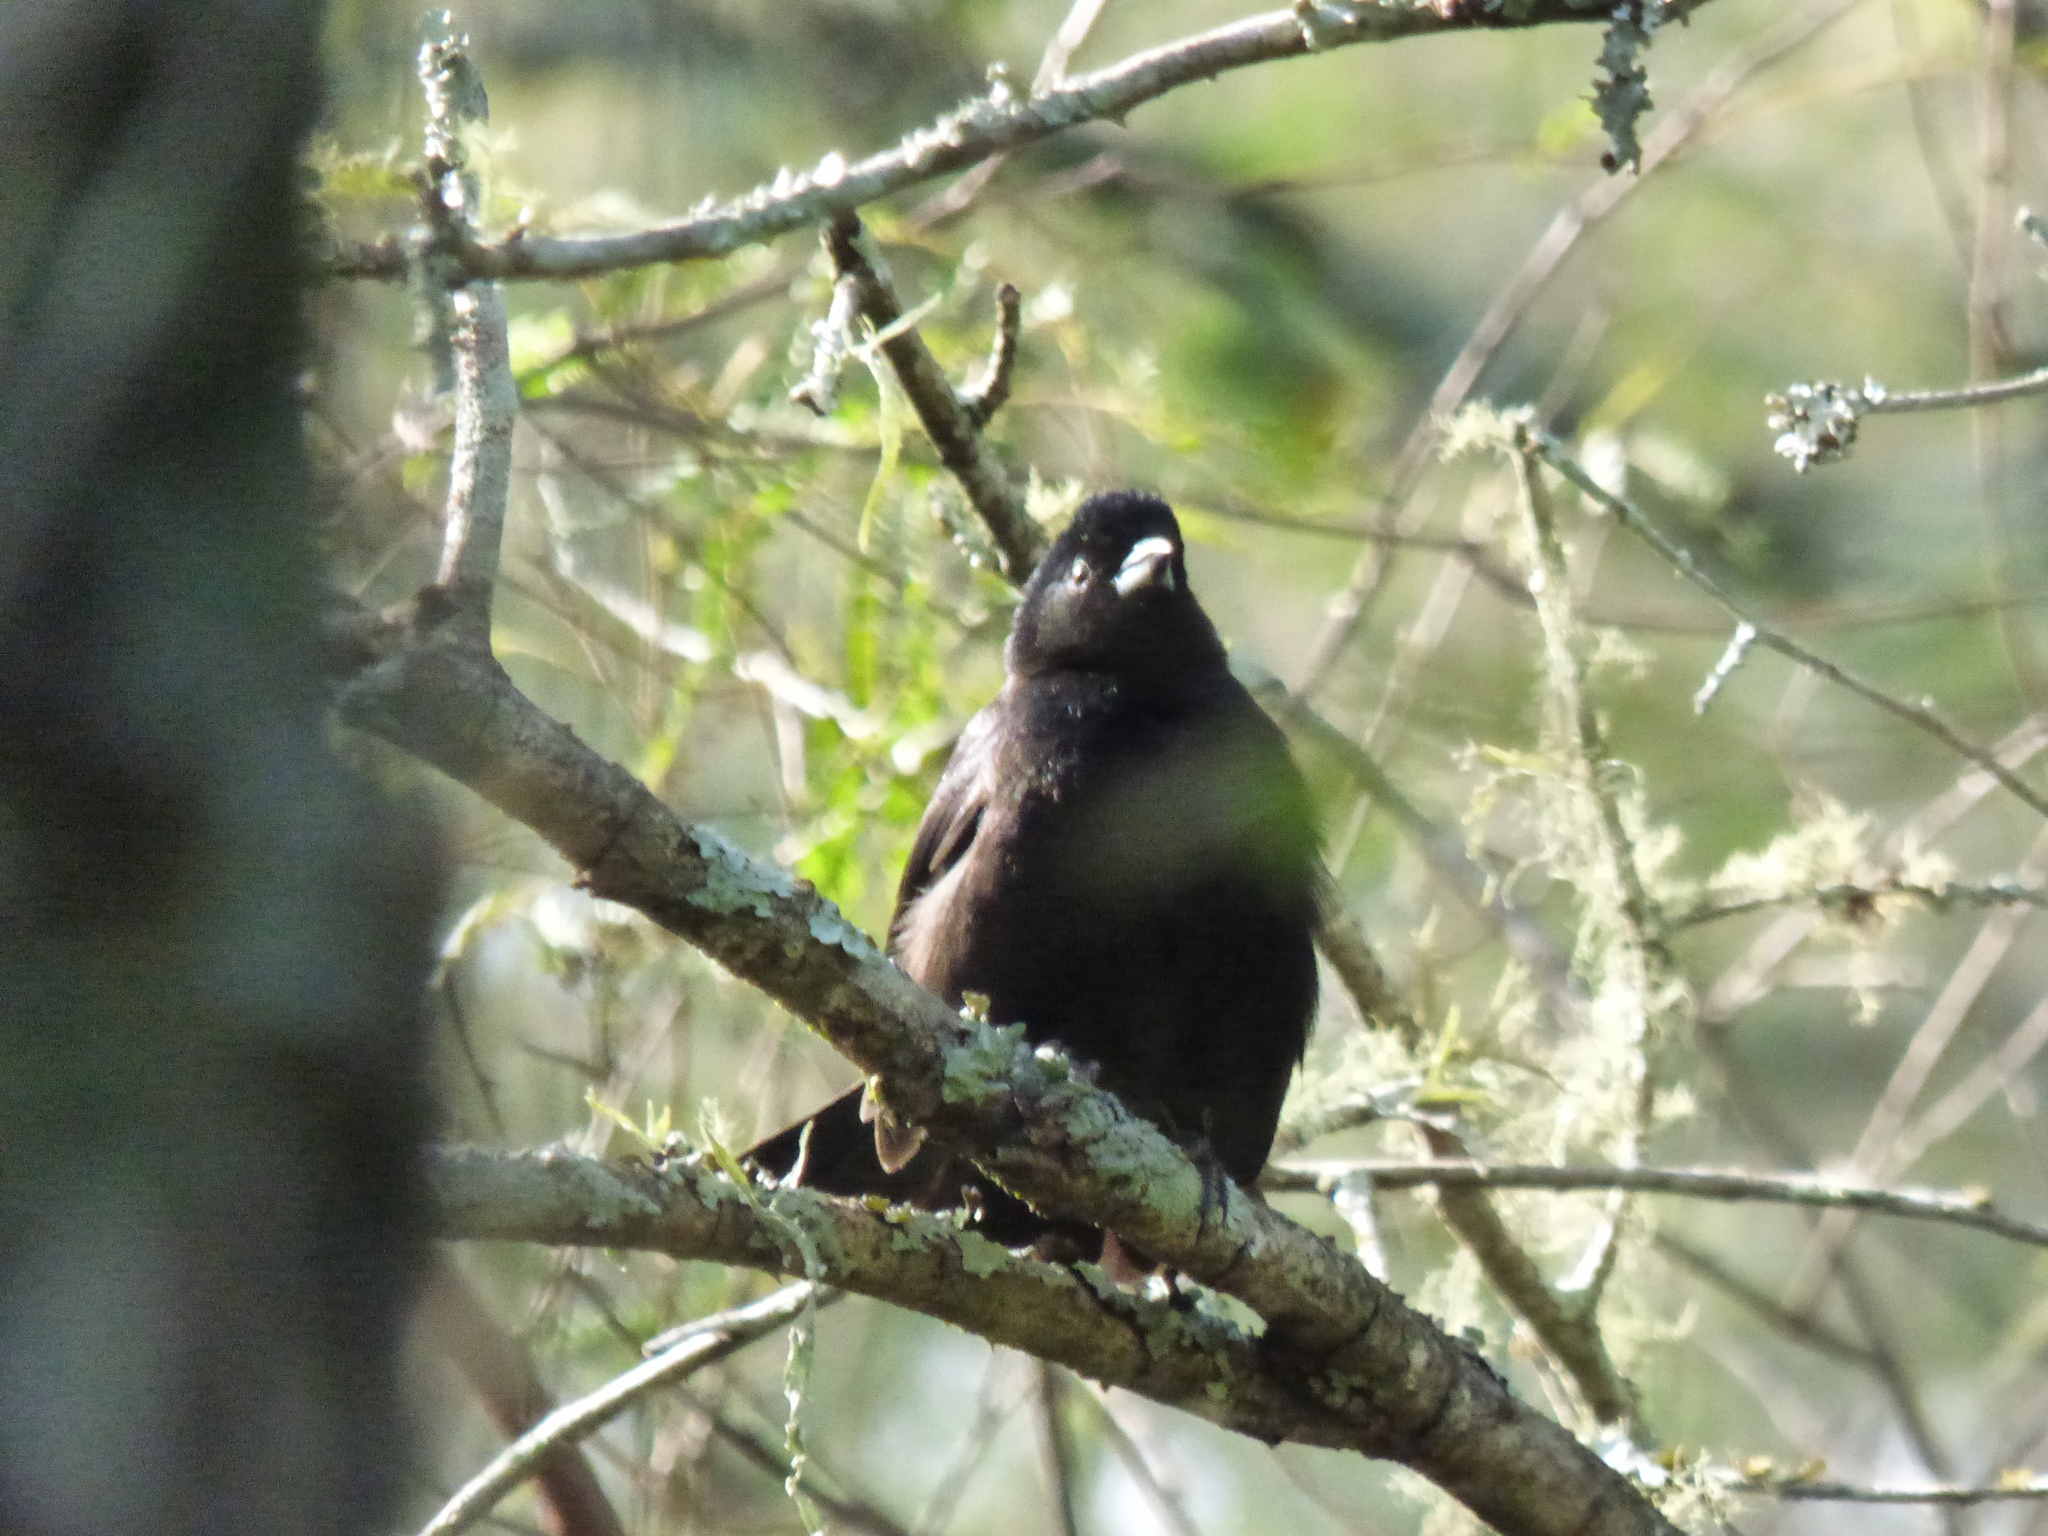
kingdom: Animalia
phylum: Chordata
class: Aves
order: Passeriformes
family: Thraupidae
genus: Tachyphonus
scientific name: Tachyphonus rufus
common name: White-lined tanager
